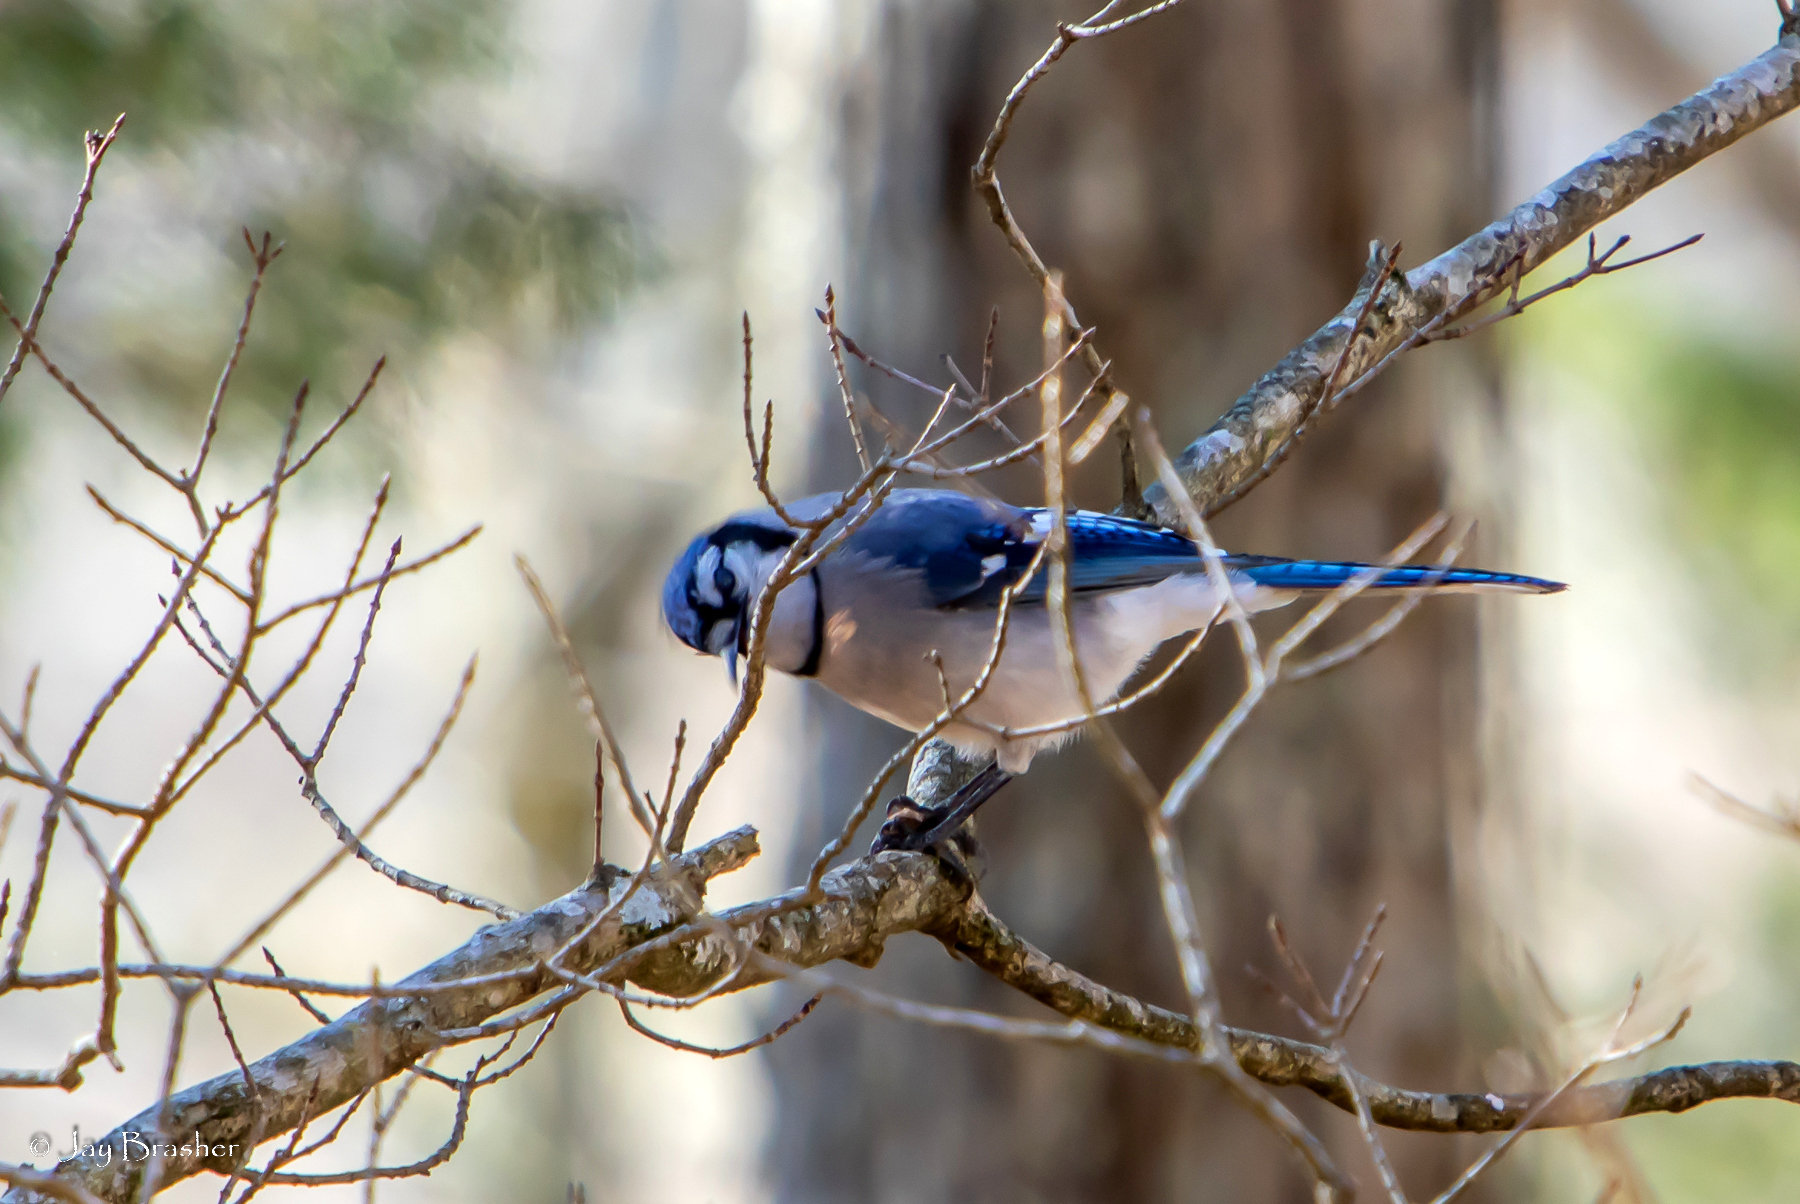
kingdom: Animalia
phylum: Chordata
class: Aves
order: Passeriformes
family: Corvidae
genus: Cyanocitta
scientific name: Cyanocitta cristata
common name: Blue jay
